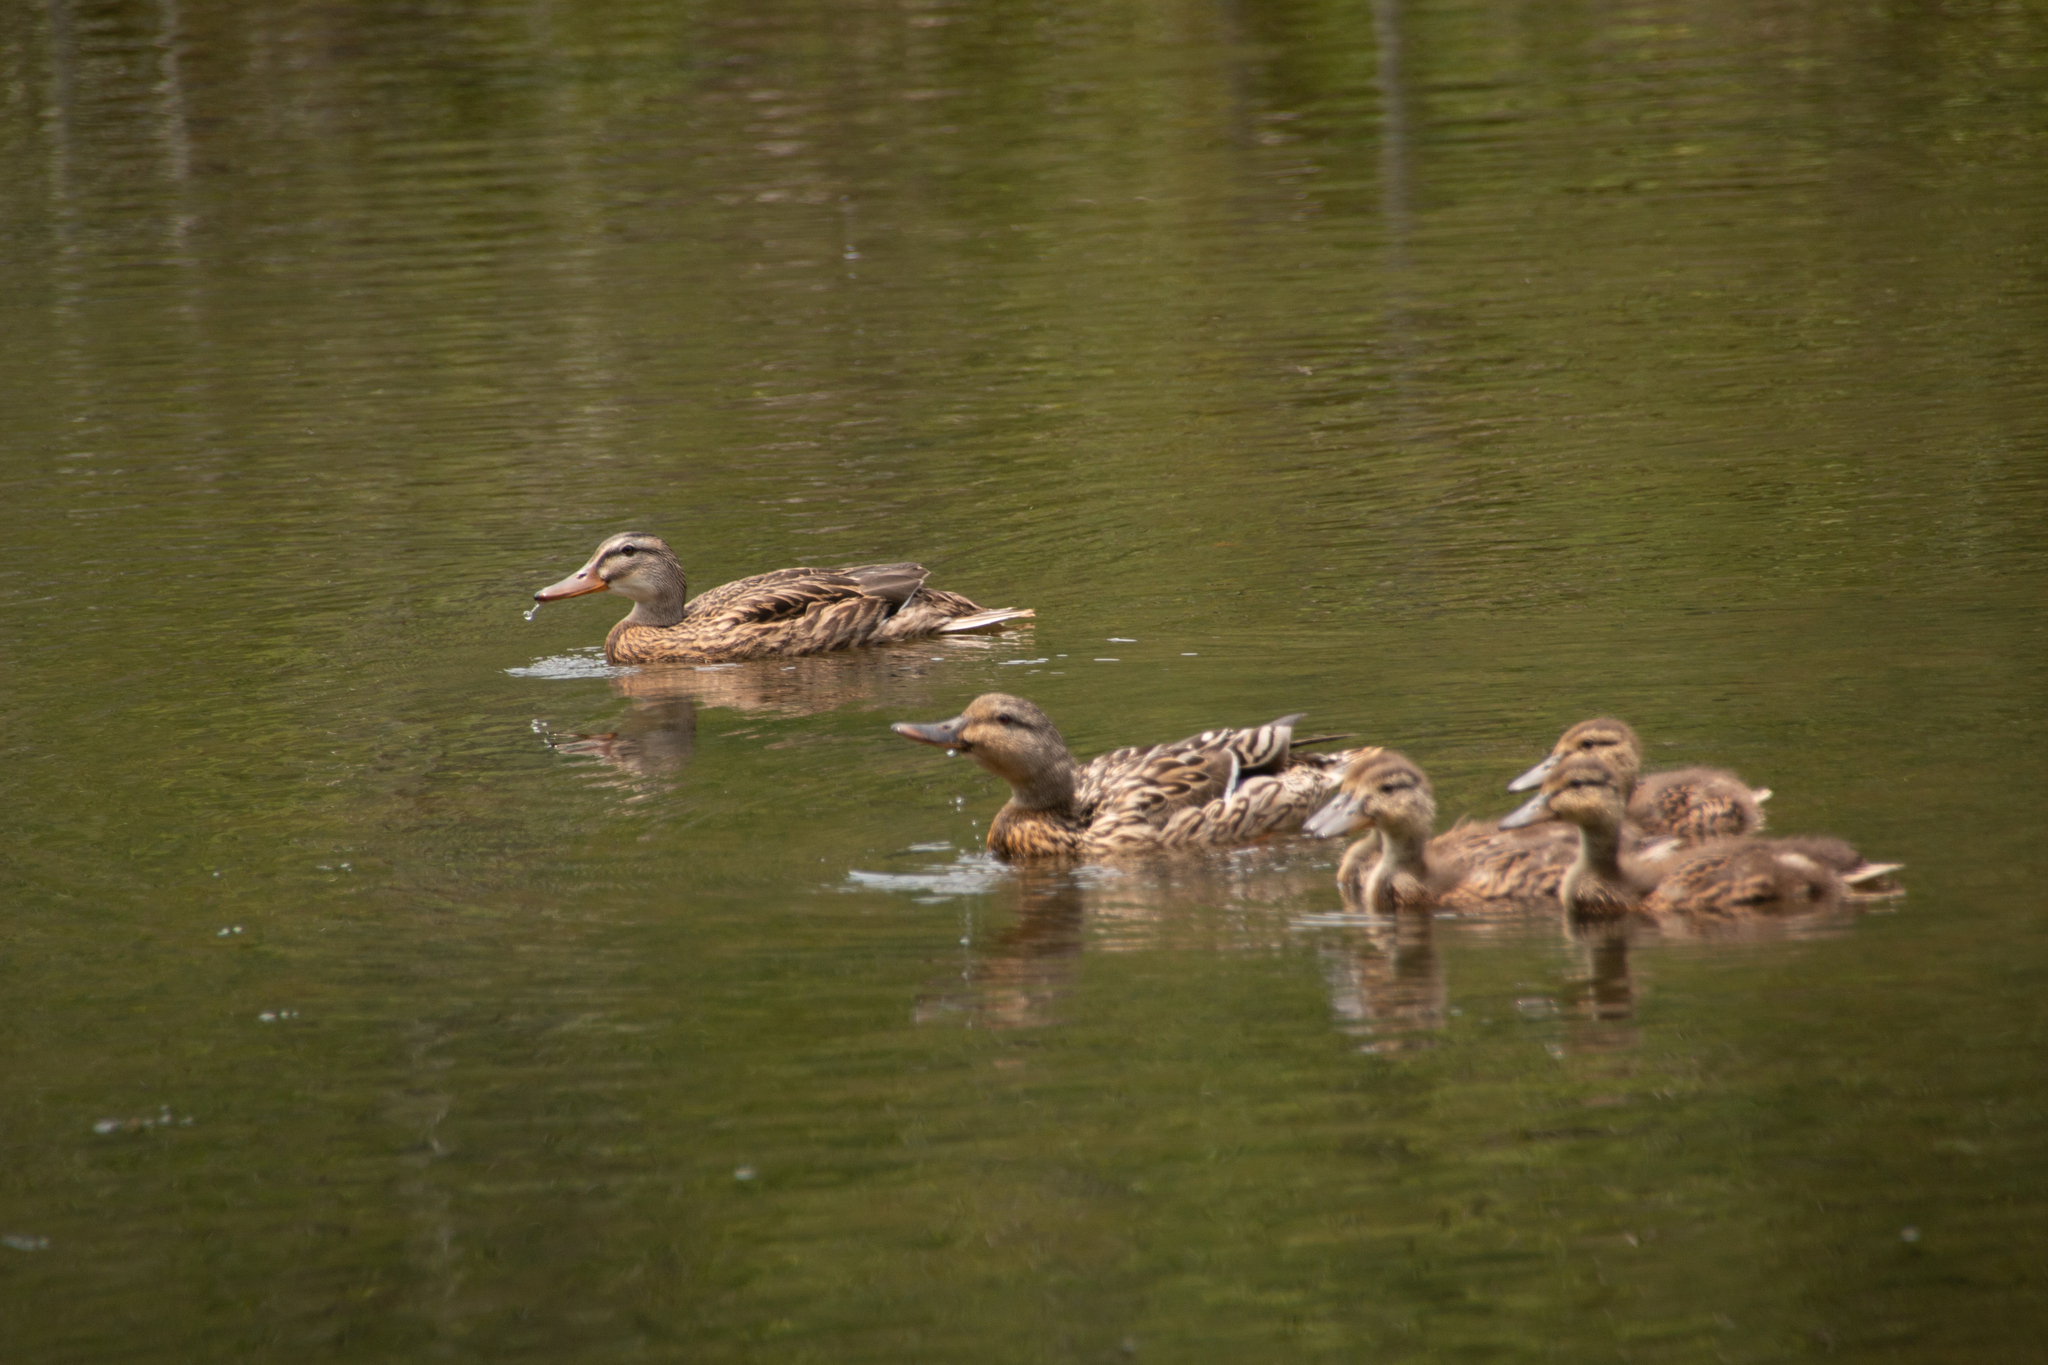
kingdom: Animalia
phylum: Chordata
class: Aves
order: Anseriformes
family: Anatidae
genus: Anas
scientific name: Anas platyrhynchos
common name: Mallard
